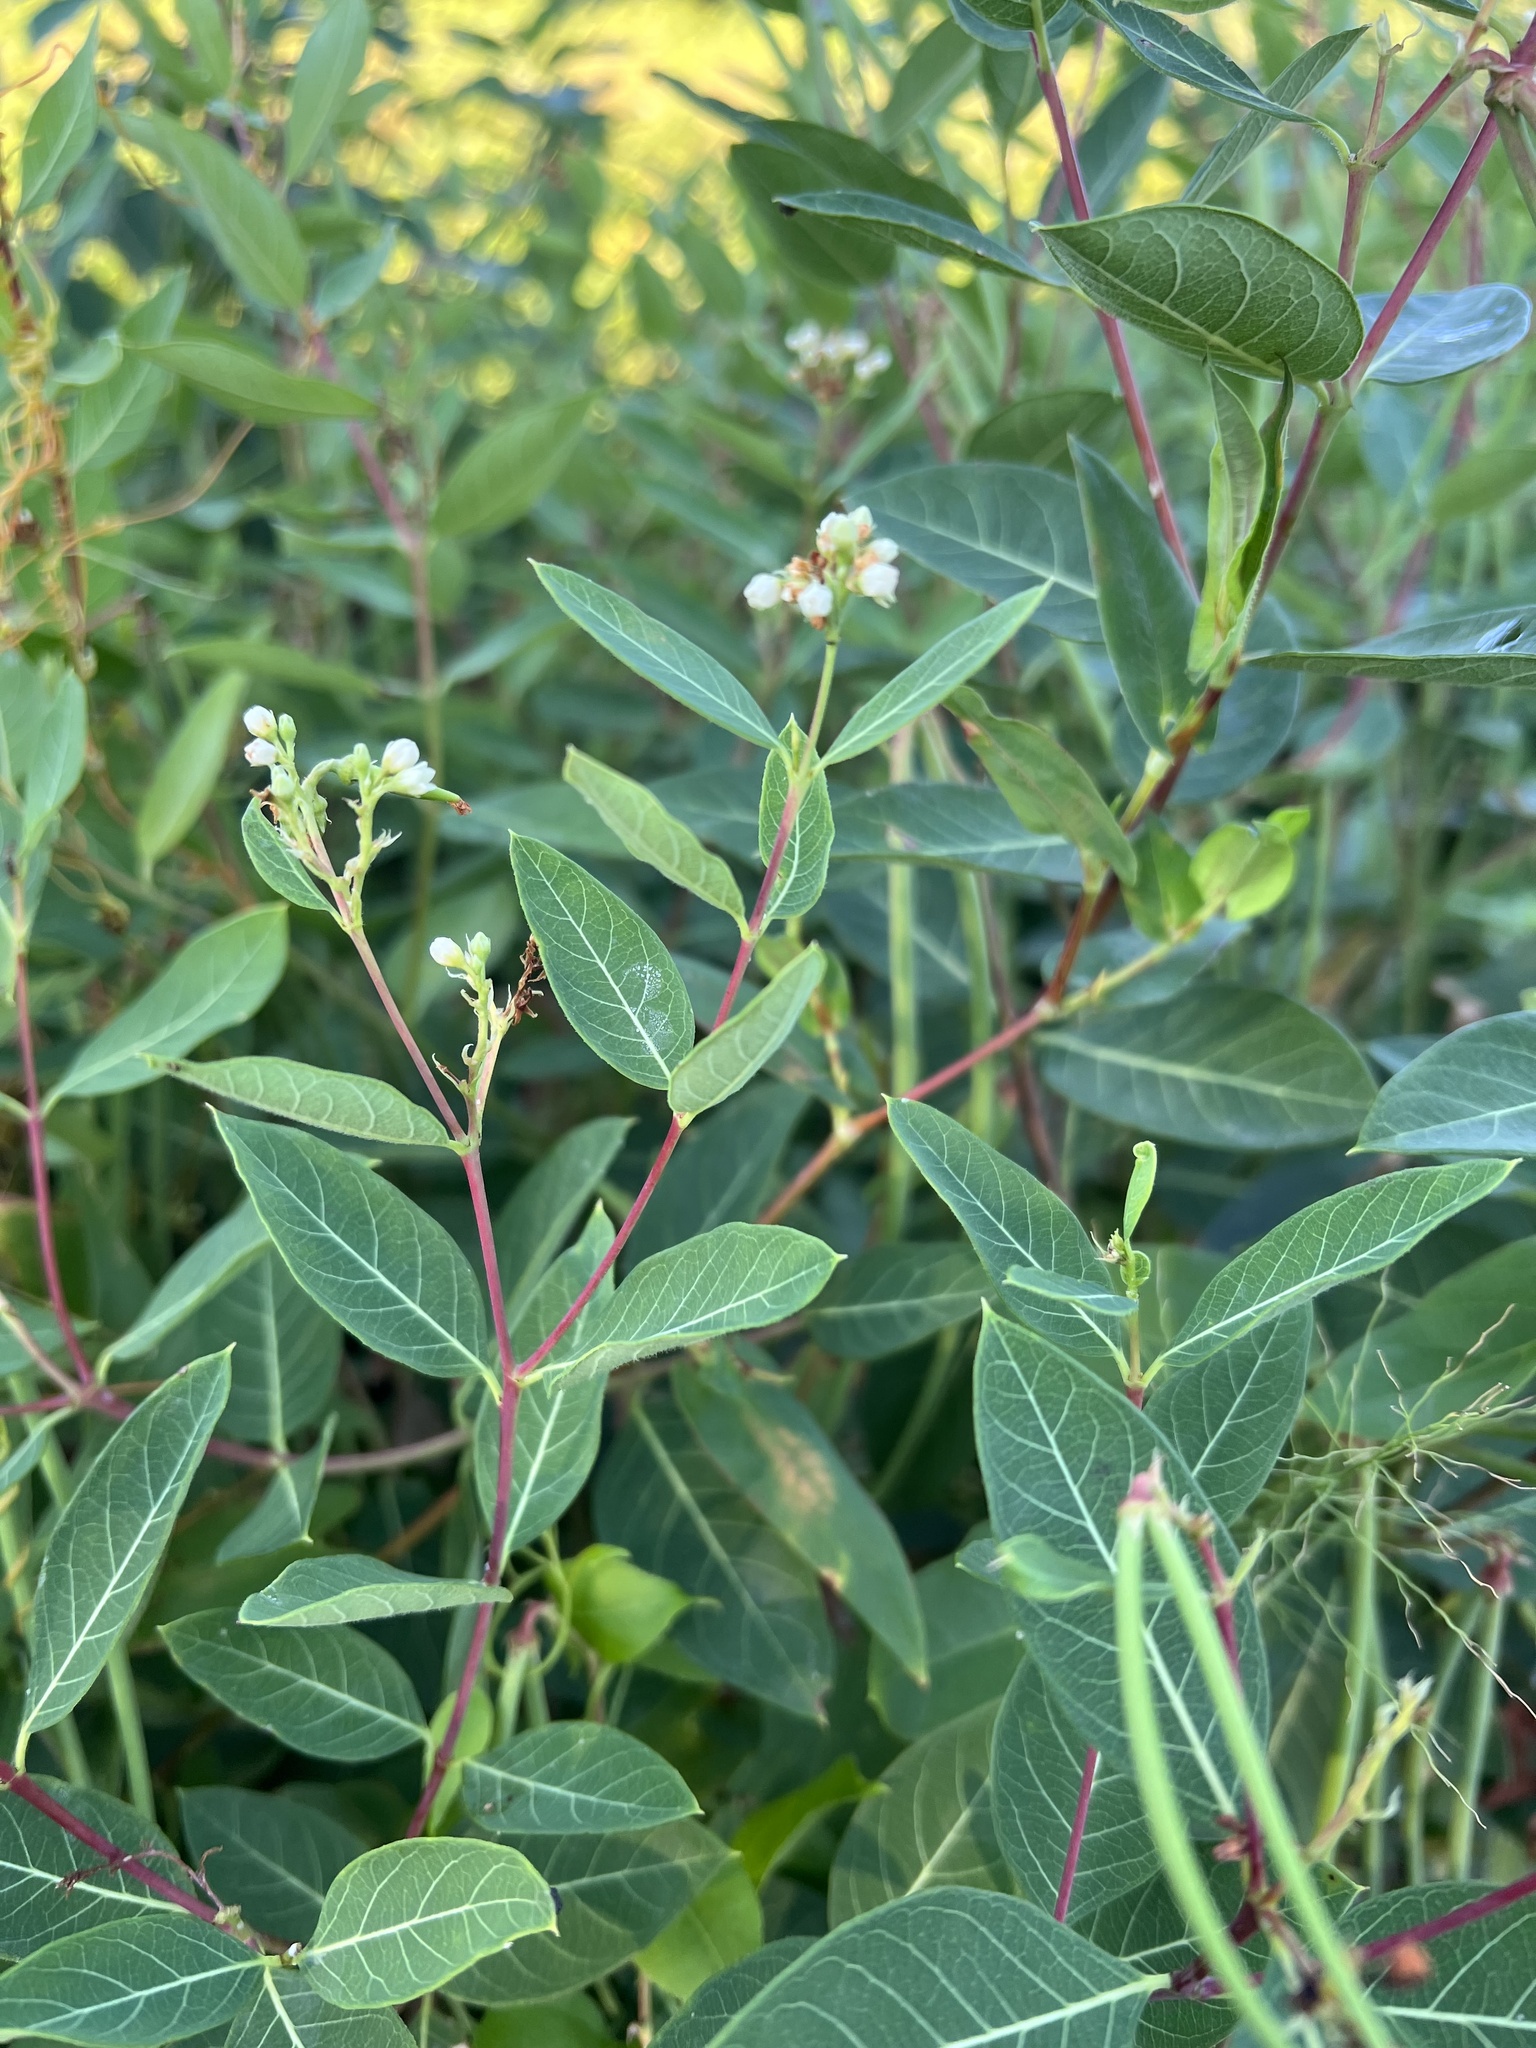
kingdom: Plantae
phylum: Tracheophyta
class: Magnoliopsida
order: Gentianales
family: Apocynaceae
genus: Apocynum
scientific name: Apocynum cannabinum
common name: Hemp dogbane
